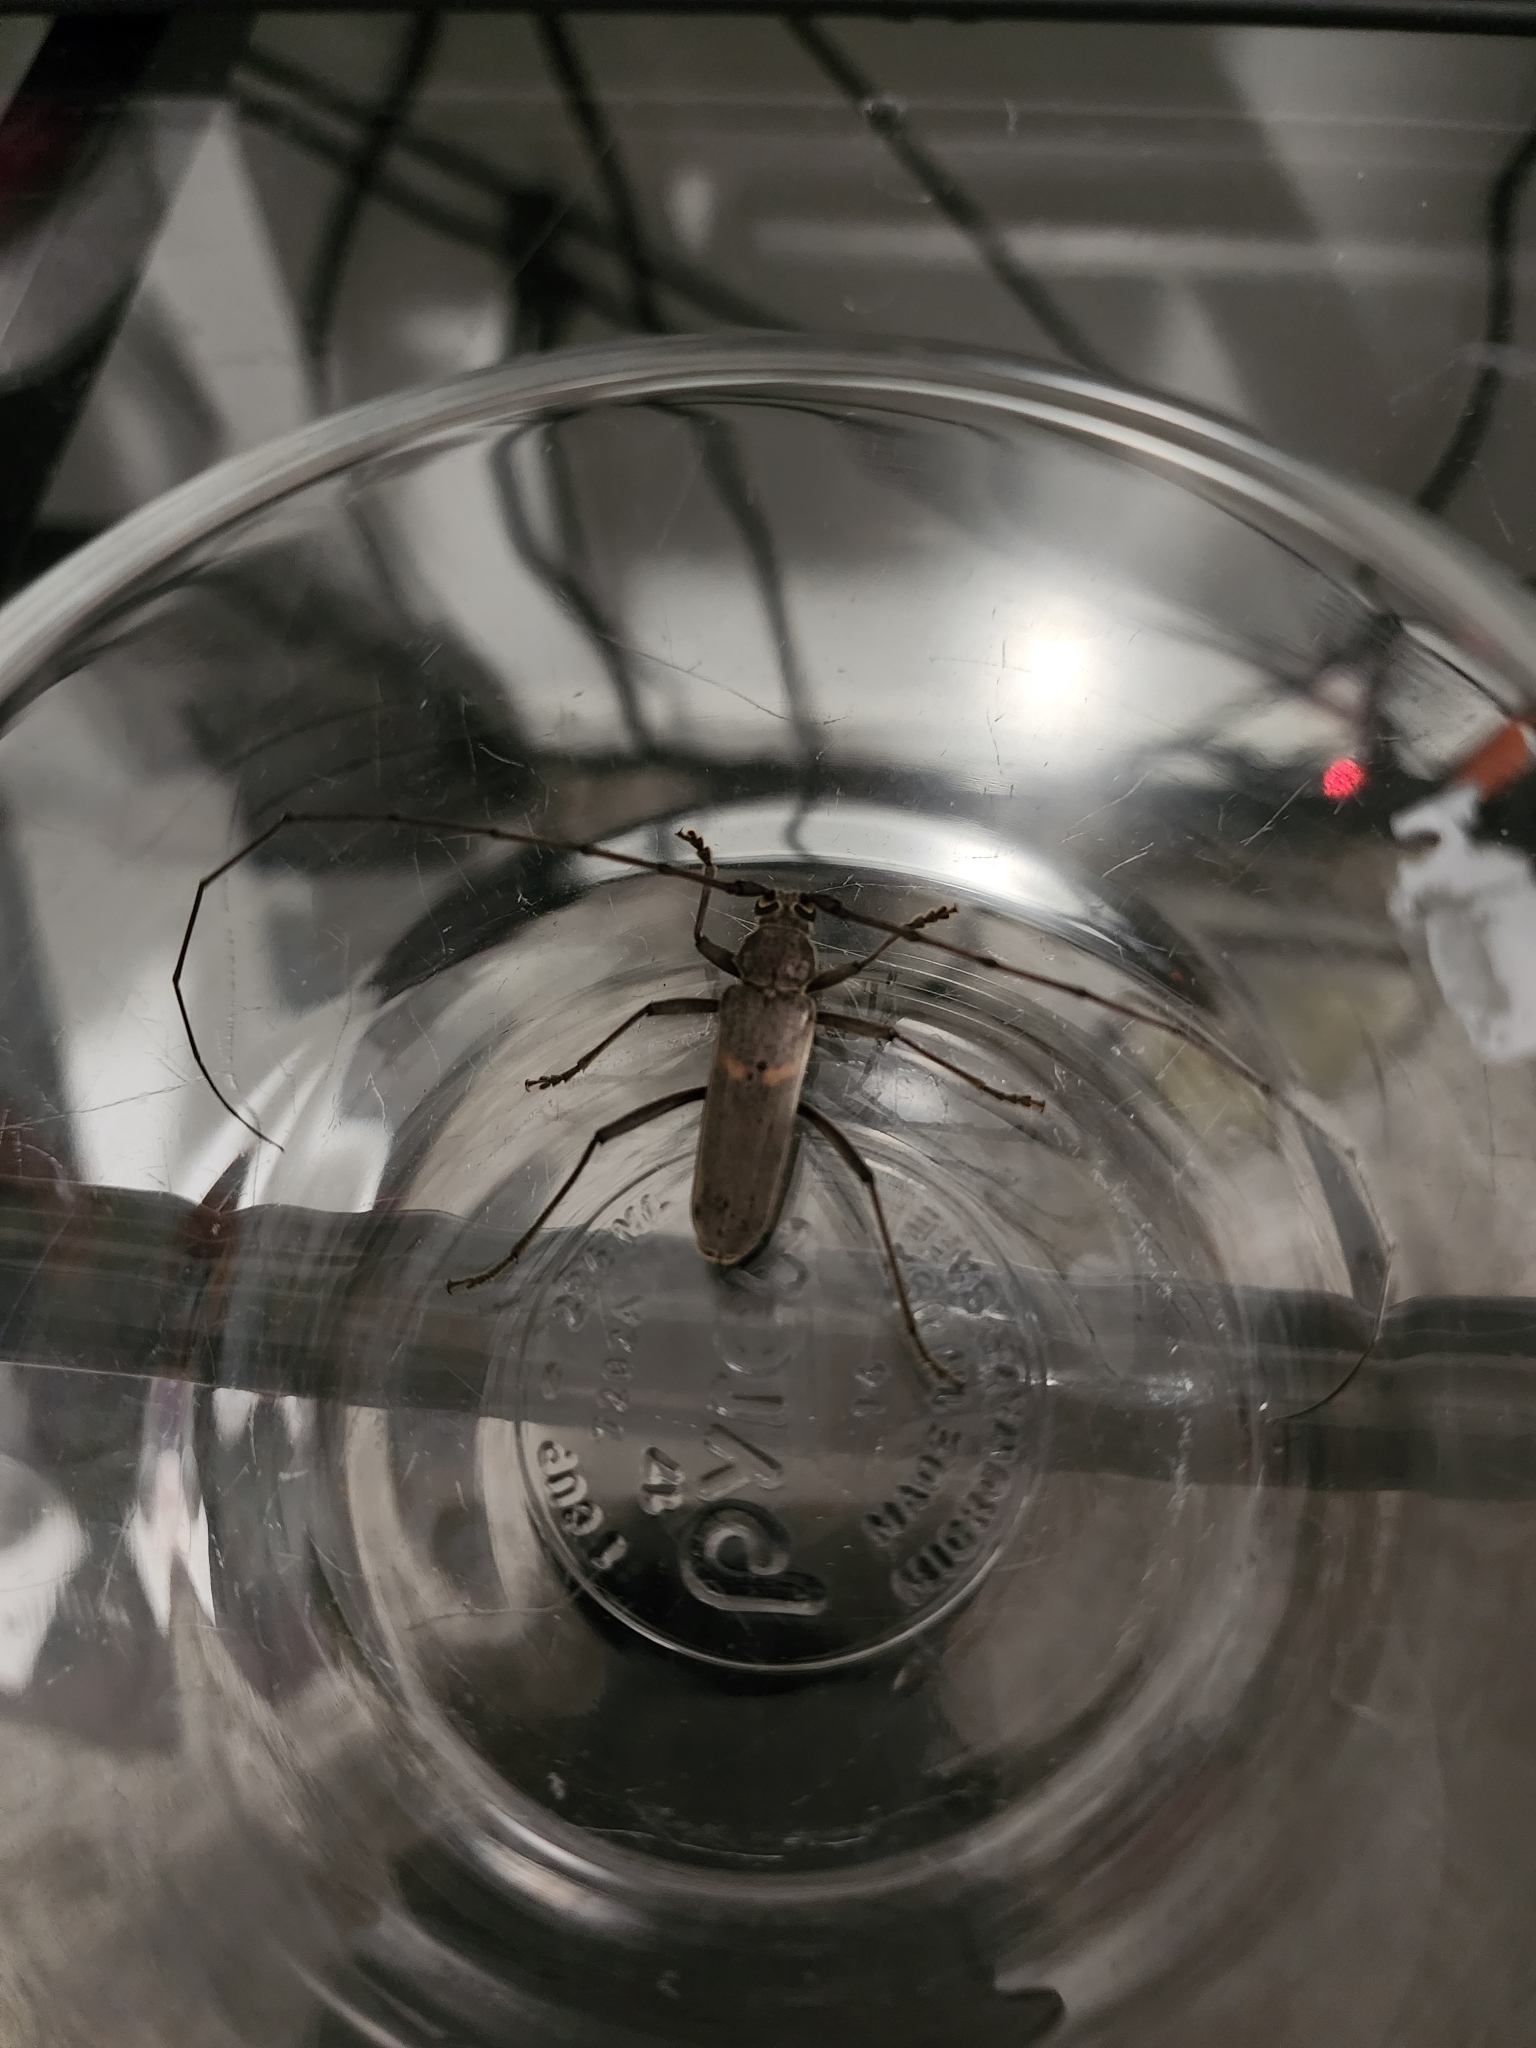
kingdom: Animalia
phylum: Arthropoda
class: Insecta
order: Coleoptera
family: Cerambycidae
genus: Knulliana
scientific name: Knulliana cincta
